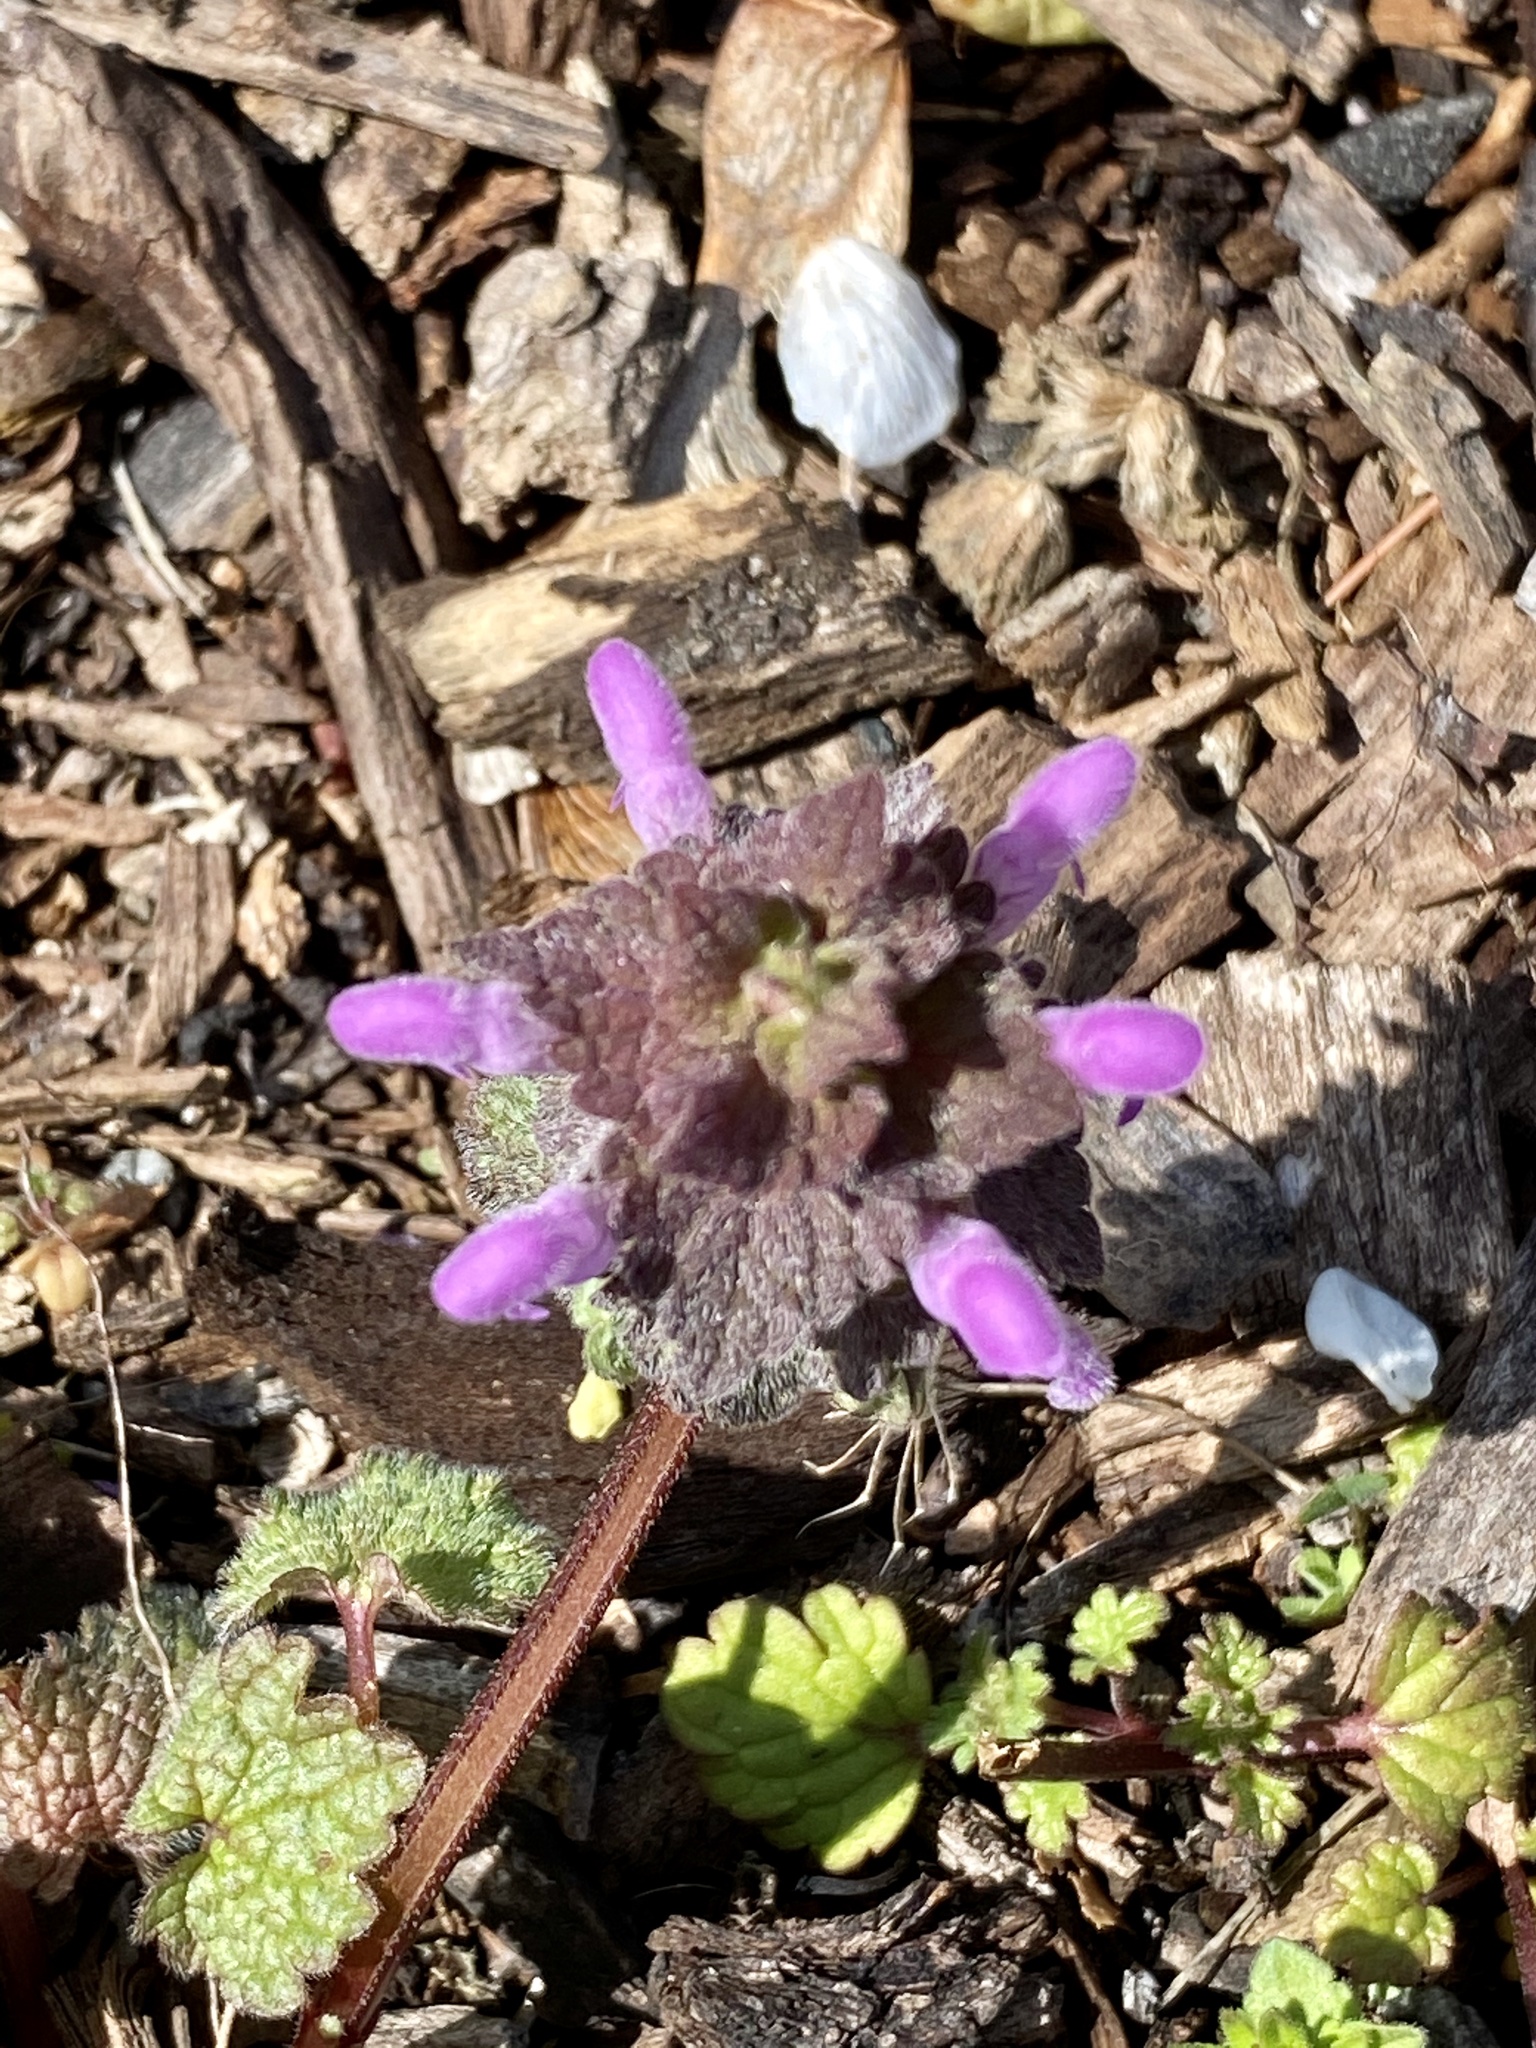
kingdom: Plantae
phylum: Tracheophyta
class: Magnoliopsida
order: Lamiales
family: Lamiaceae
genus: Lamium
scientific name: Lamium purpureum
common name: Red dead-nettle
